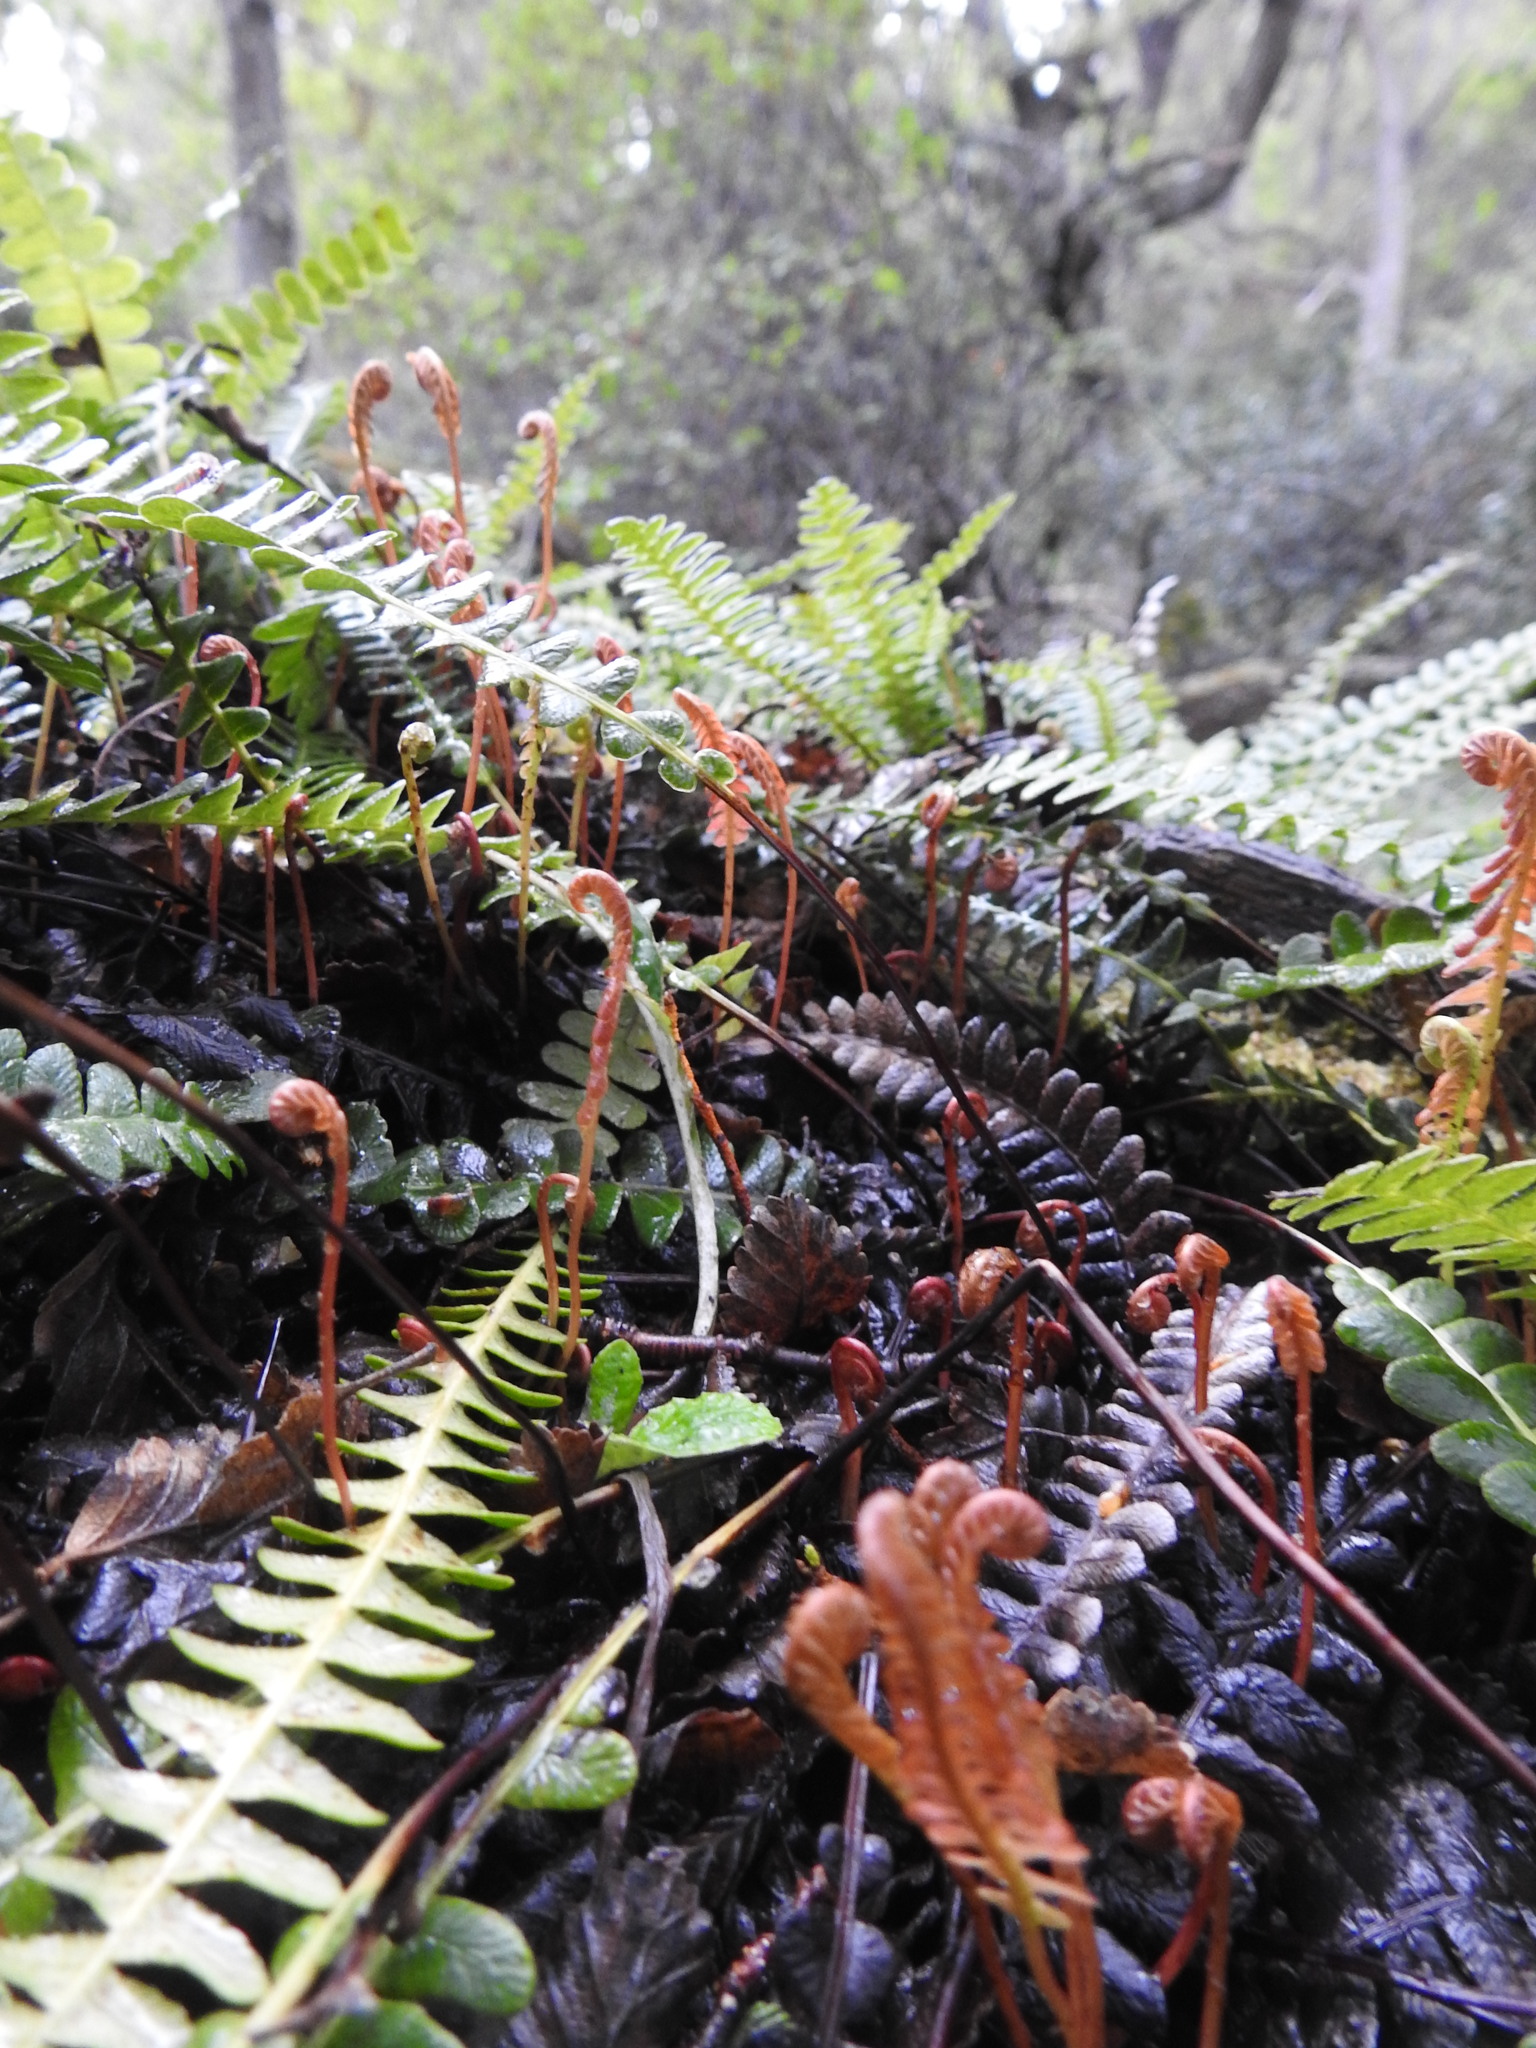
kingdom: Plantae
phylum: Tracheophyta
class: Polypodiopsida
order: Polypodiales
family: Blechnaceae
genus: Austroblechnum
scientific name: Austroblechnum penna-marina
